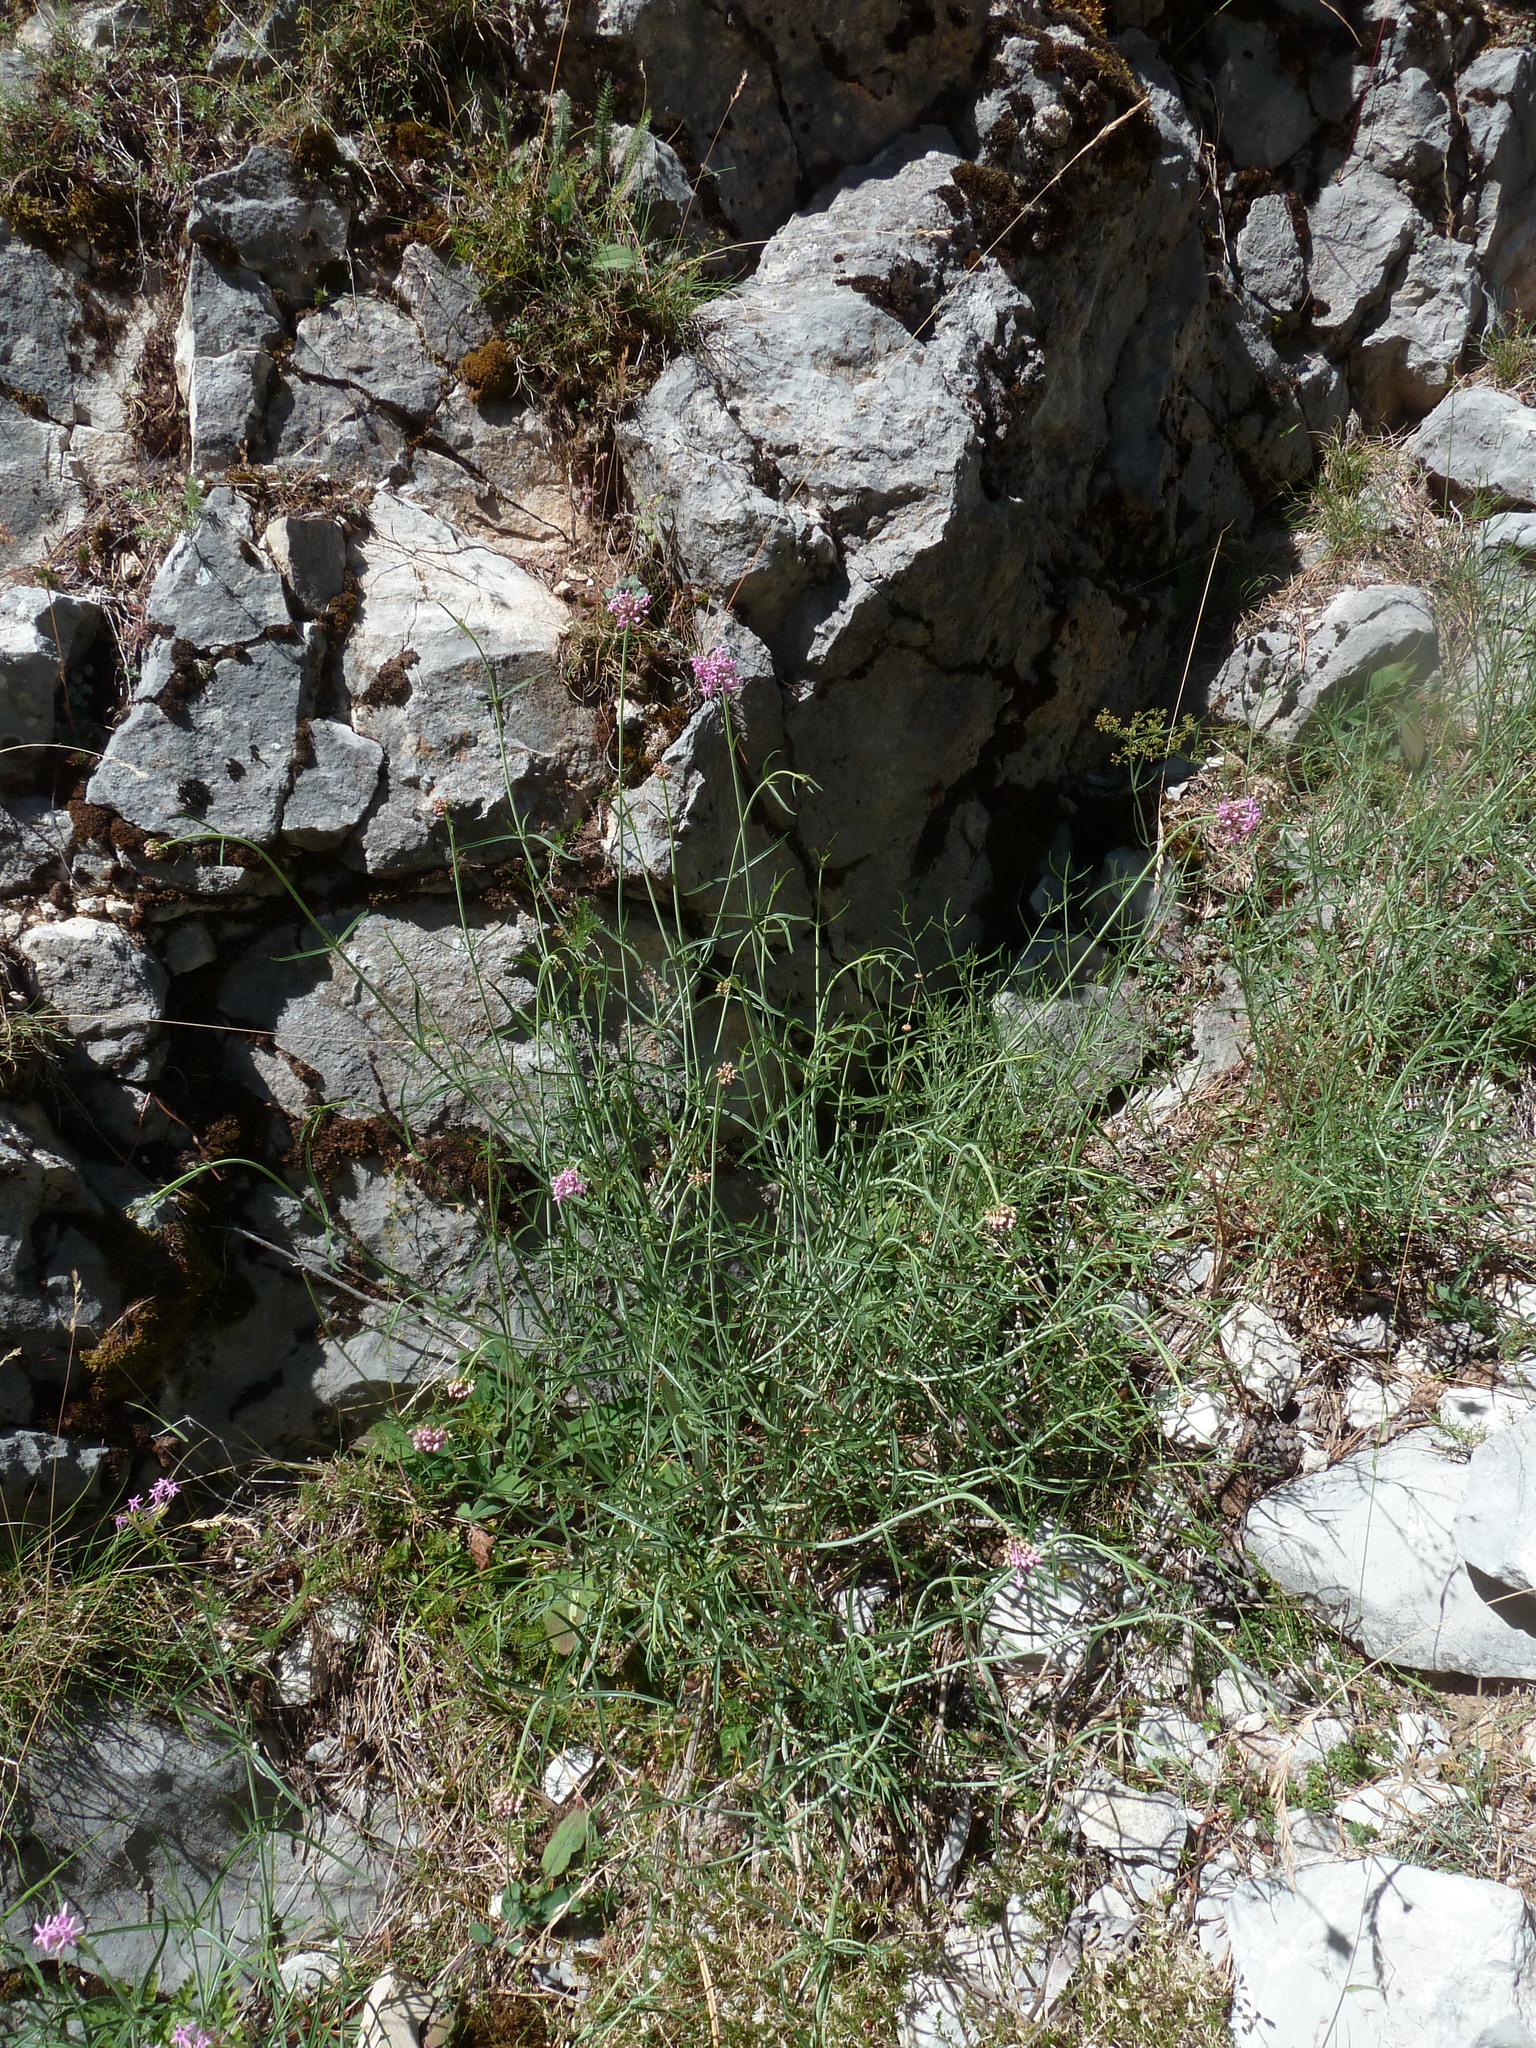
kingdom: Plantae
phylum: Tracheophyta
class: Magnoliopsida
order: Dipsacales
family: Caprifoliaceae
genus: Centranthus
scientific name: Centranthus angustifolius
